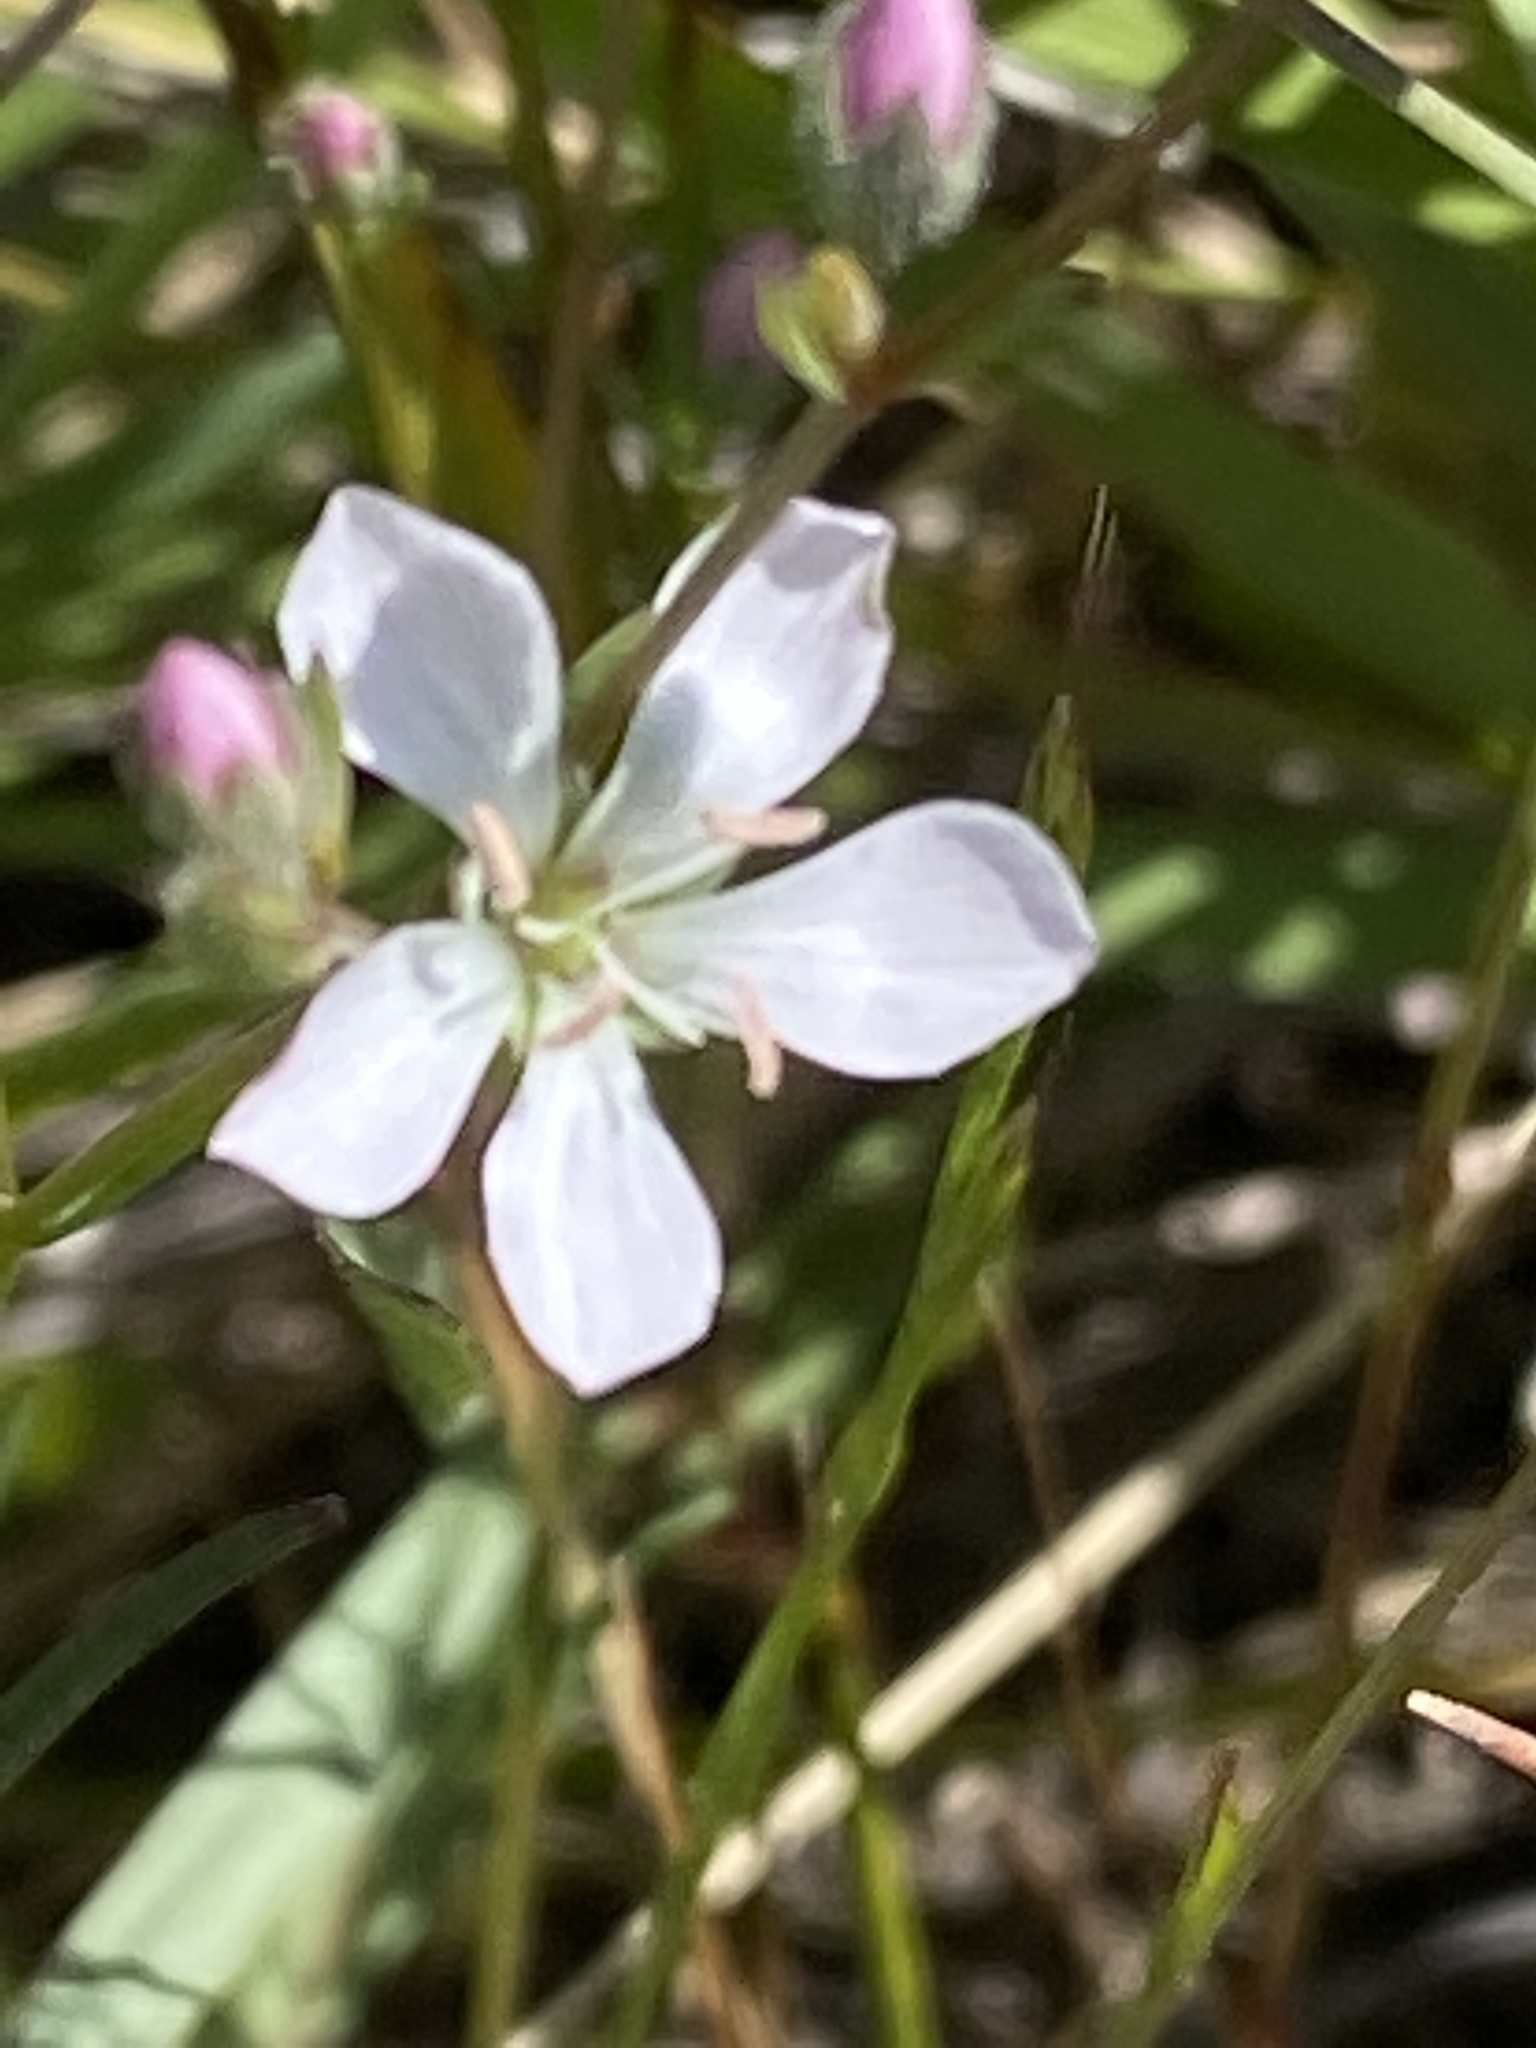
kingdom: Plantae
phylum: Tracheophyta
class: Magnoliopsida
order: Malpighiales
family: Linaceae
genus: Hesperolinon
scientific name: Hesperolinon congestum
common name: Marin dwarf-flax
